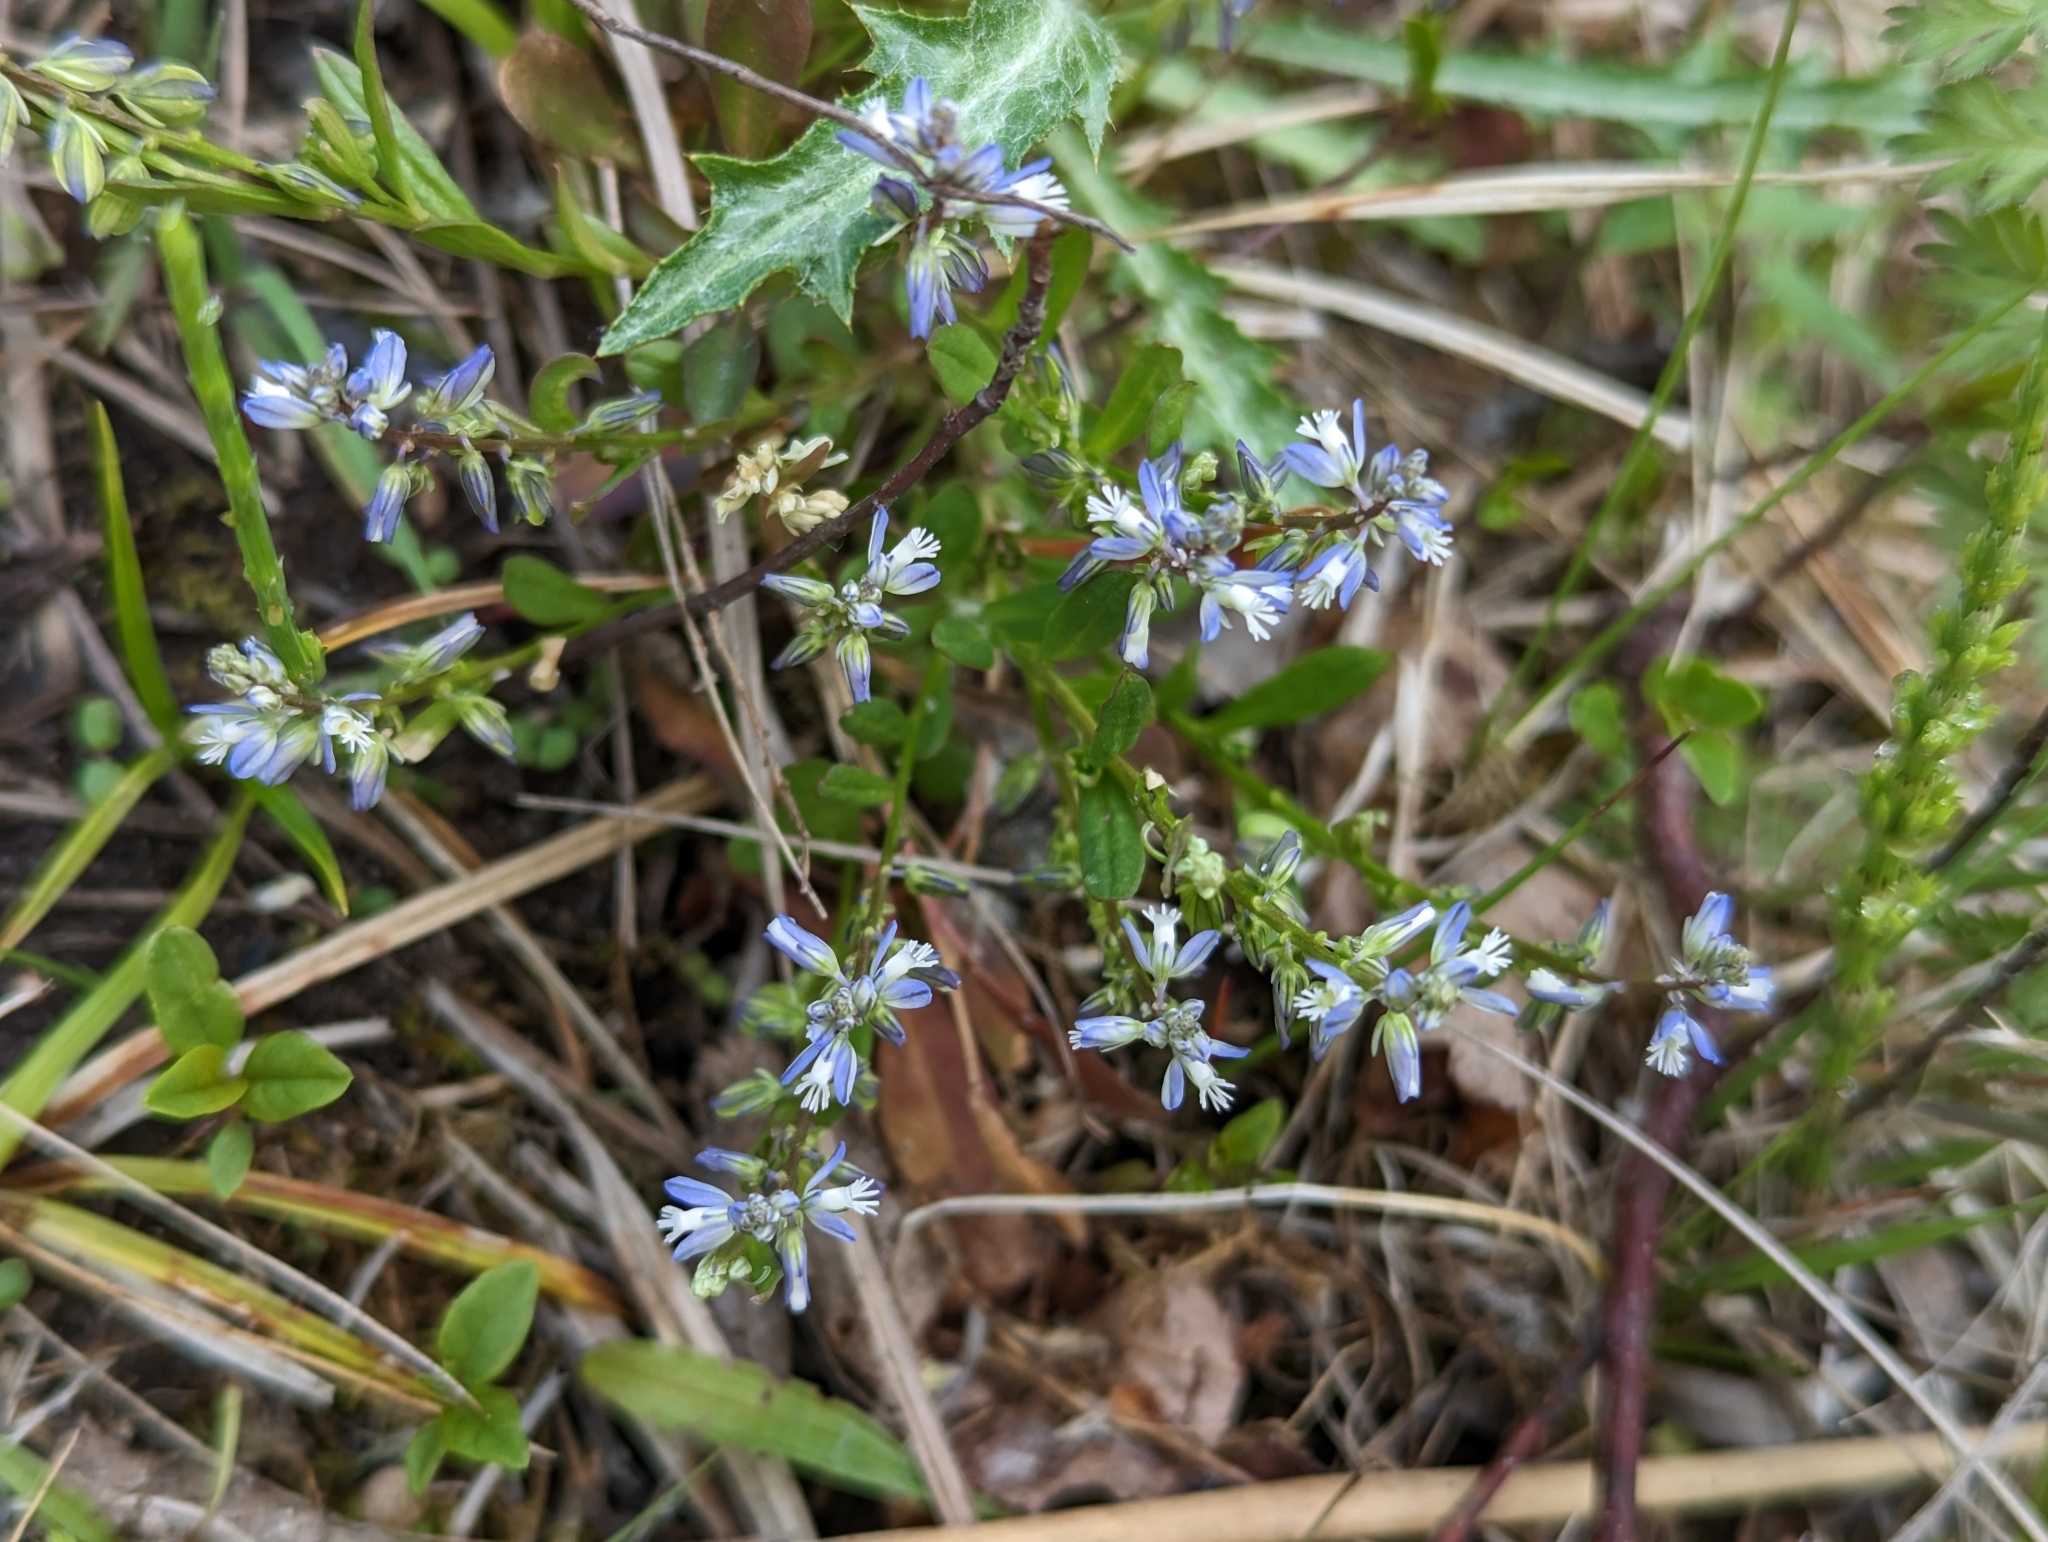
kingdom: Plantae
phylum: Tracheophyta
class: Magnoliopsida
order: Fabales
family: Polygalaceae
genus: Polygala
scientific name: Polygala amarella
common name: Dwarf milkwort
